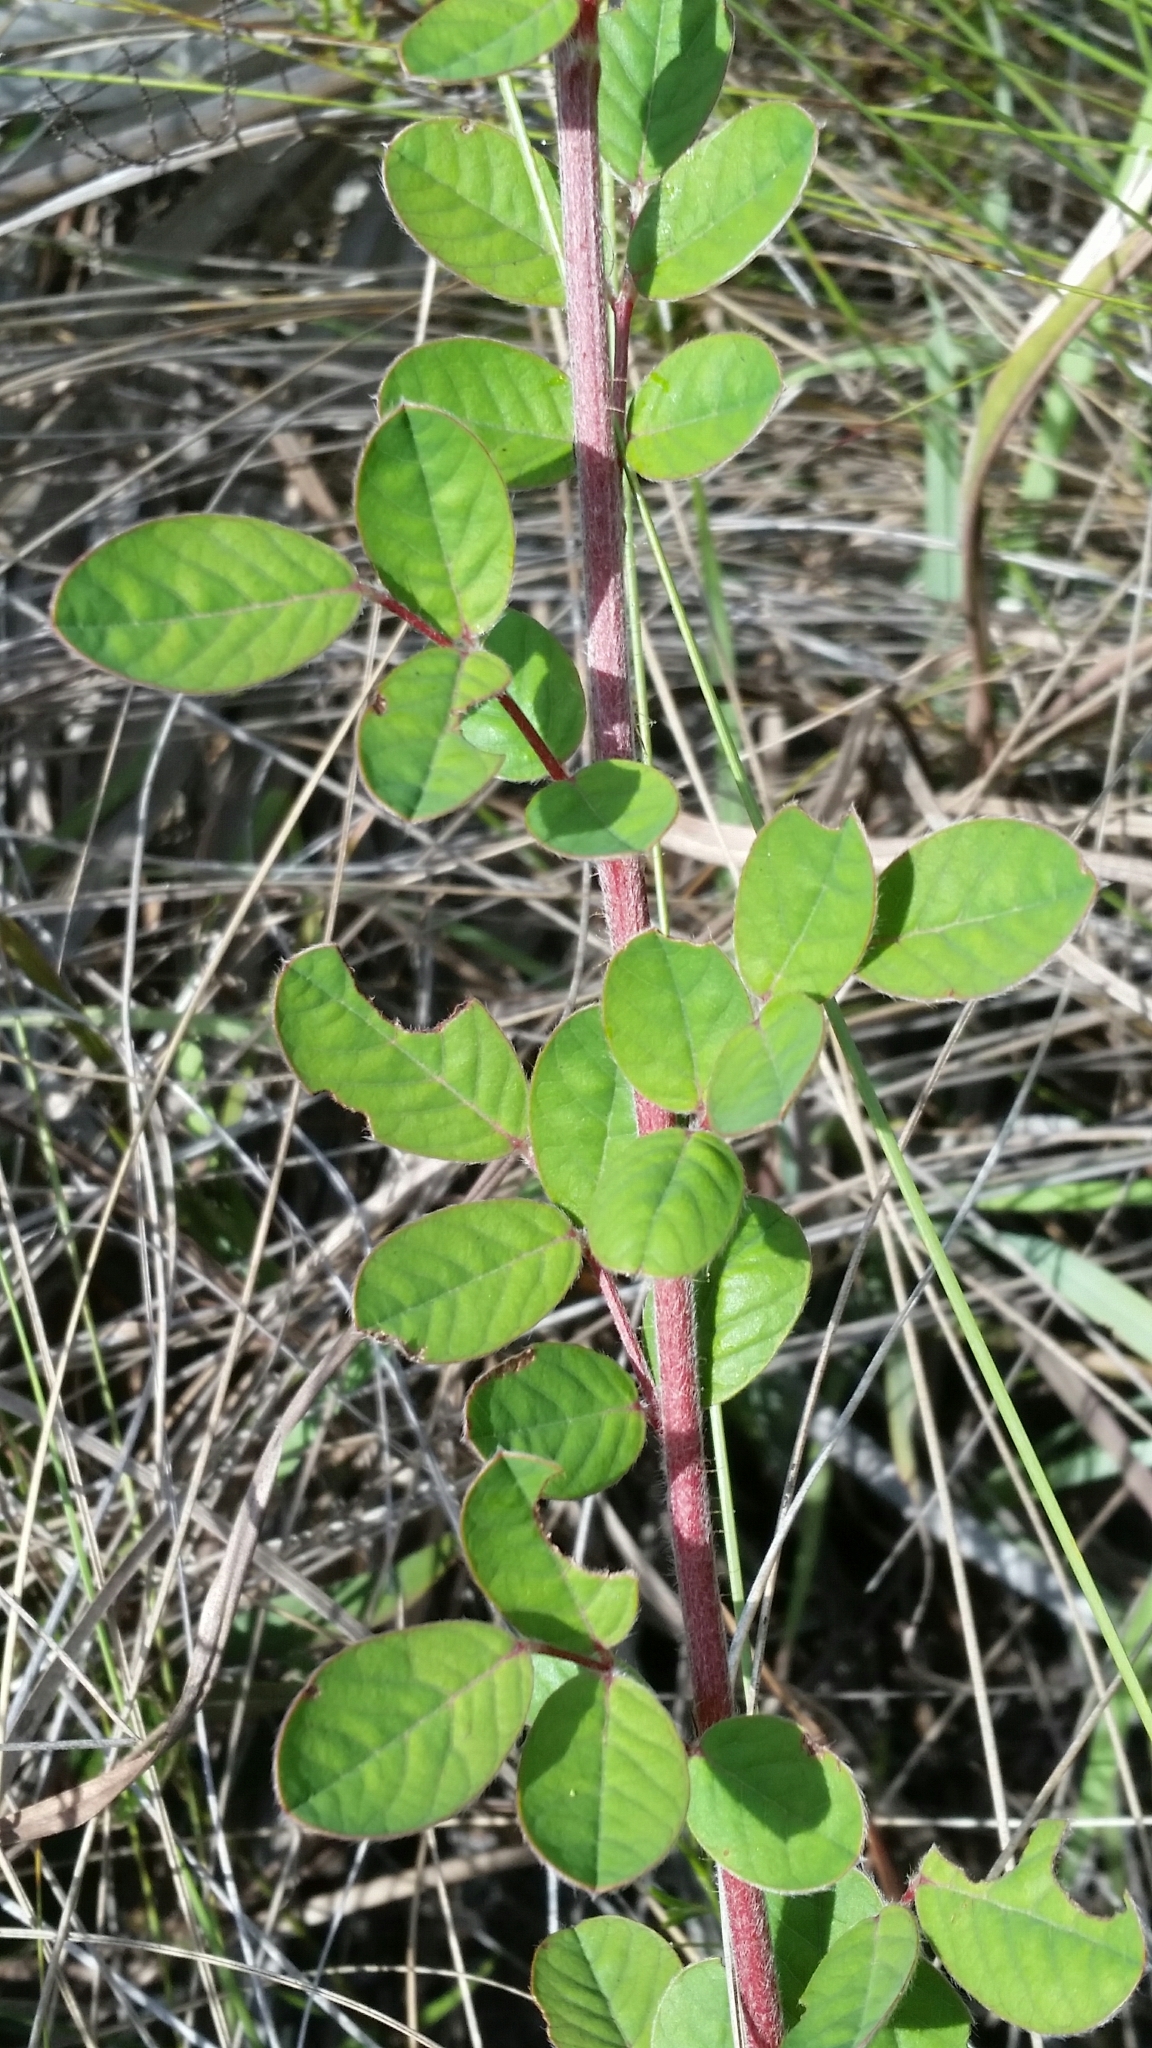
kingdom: Plantae
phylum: Tracheophyta
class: Magnoliopsida
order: Fabales
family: Fabaceae
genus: Chapmannia
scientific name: Chapmannia floridana
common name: Alicia
